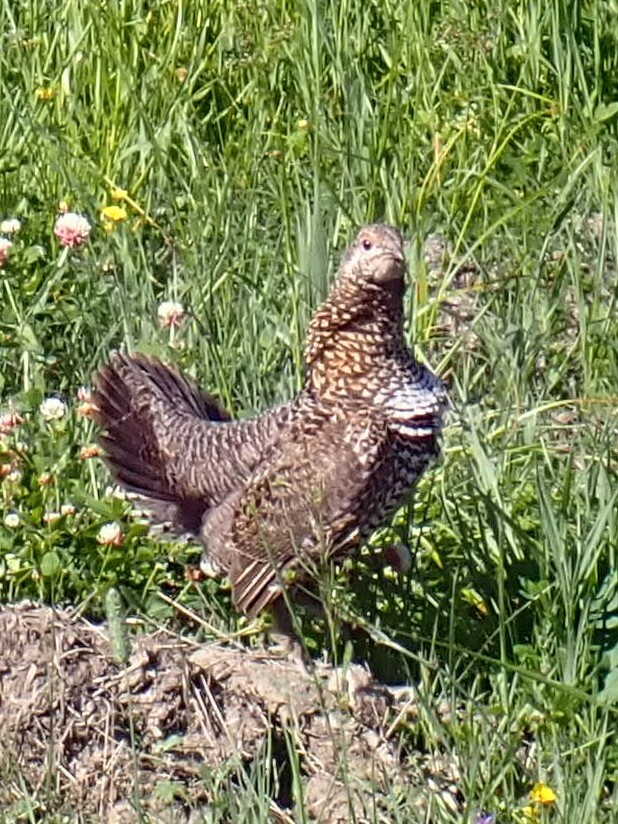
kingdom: Animalia
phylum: Chordata
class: Aves
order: Galliformes
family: Phasianidae
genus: Canachites
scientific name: Canachites canadensis
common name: Spruce grouse
